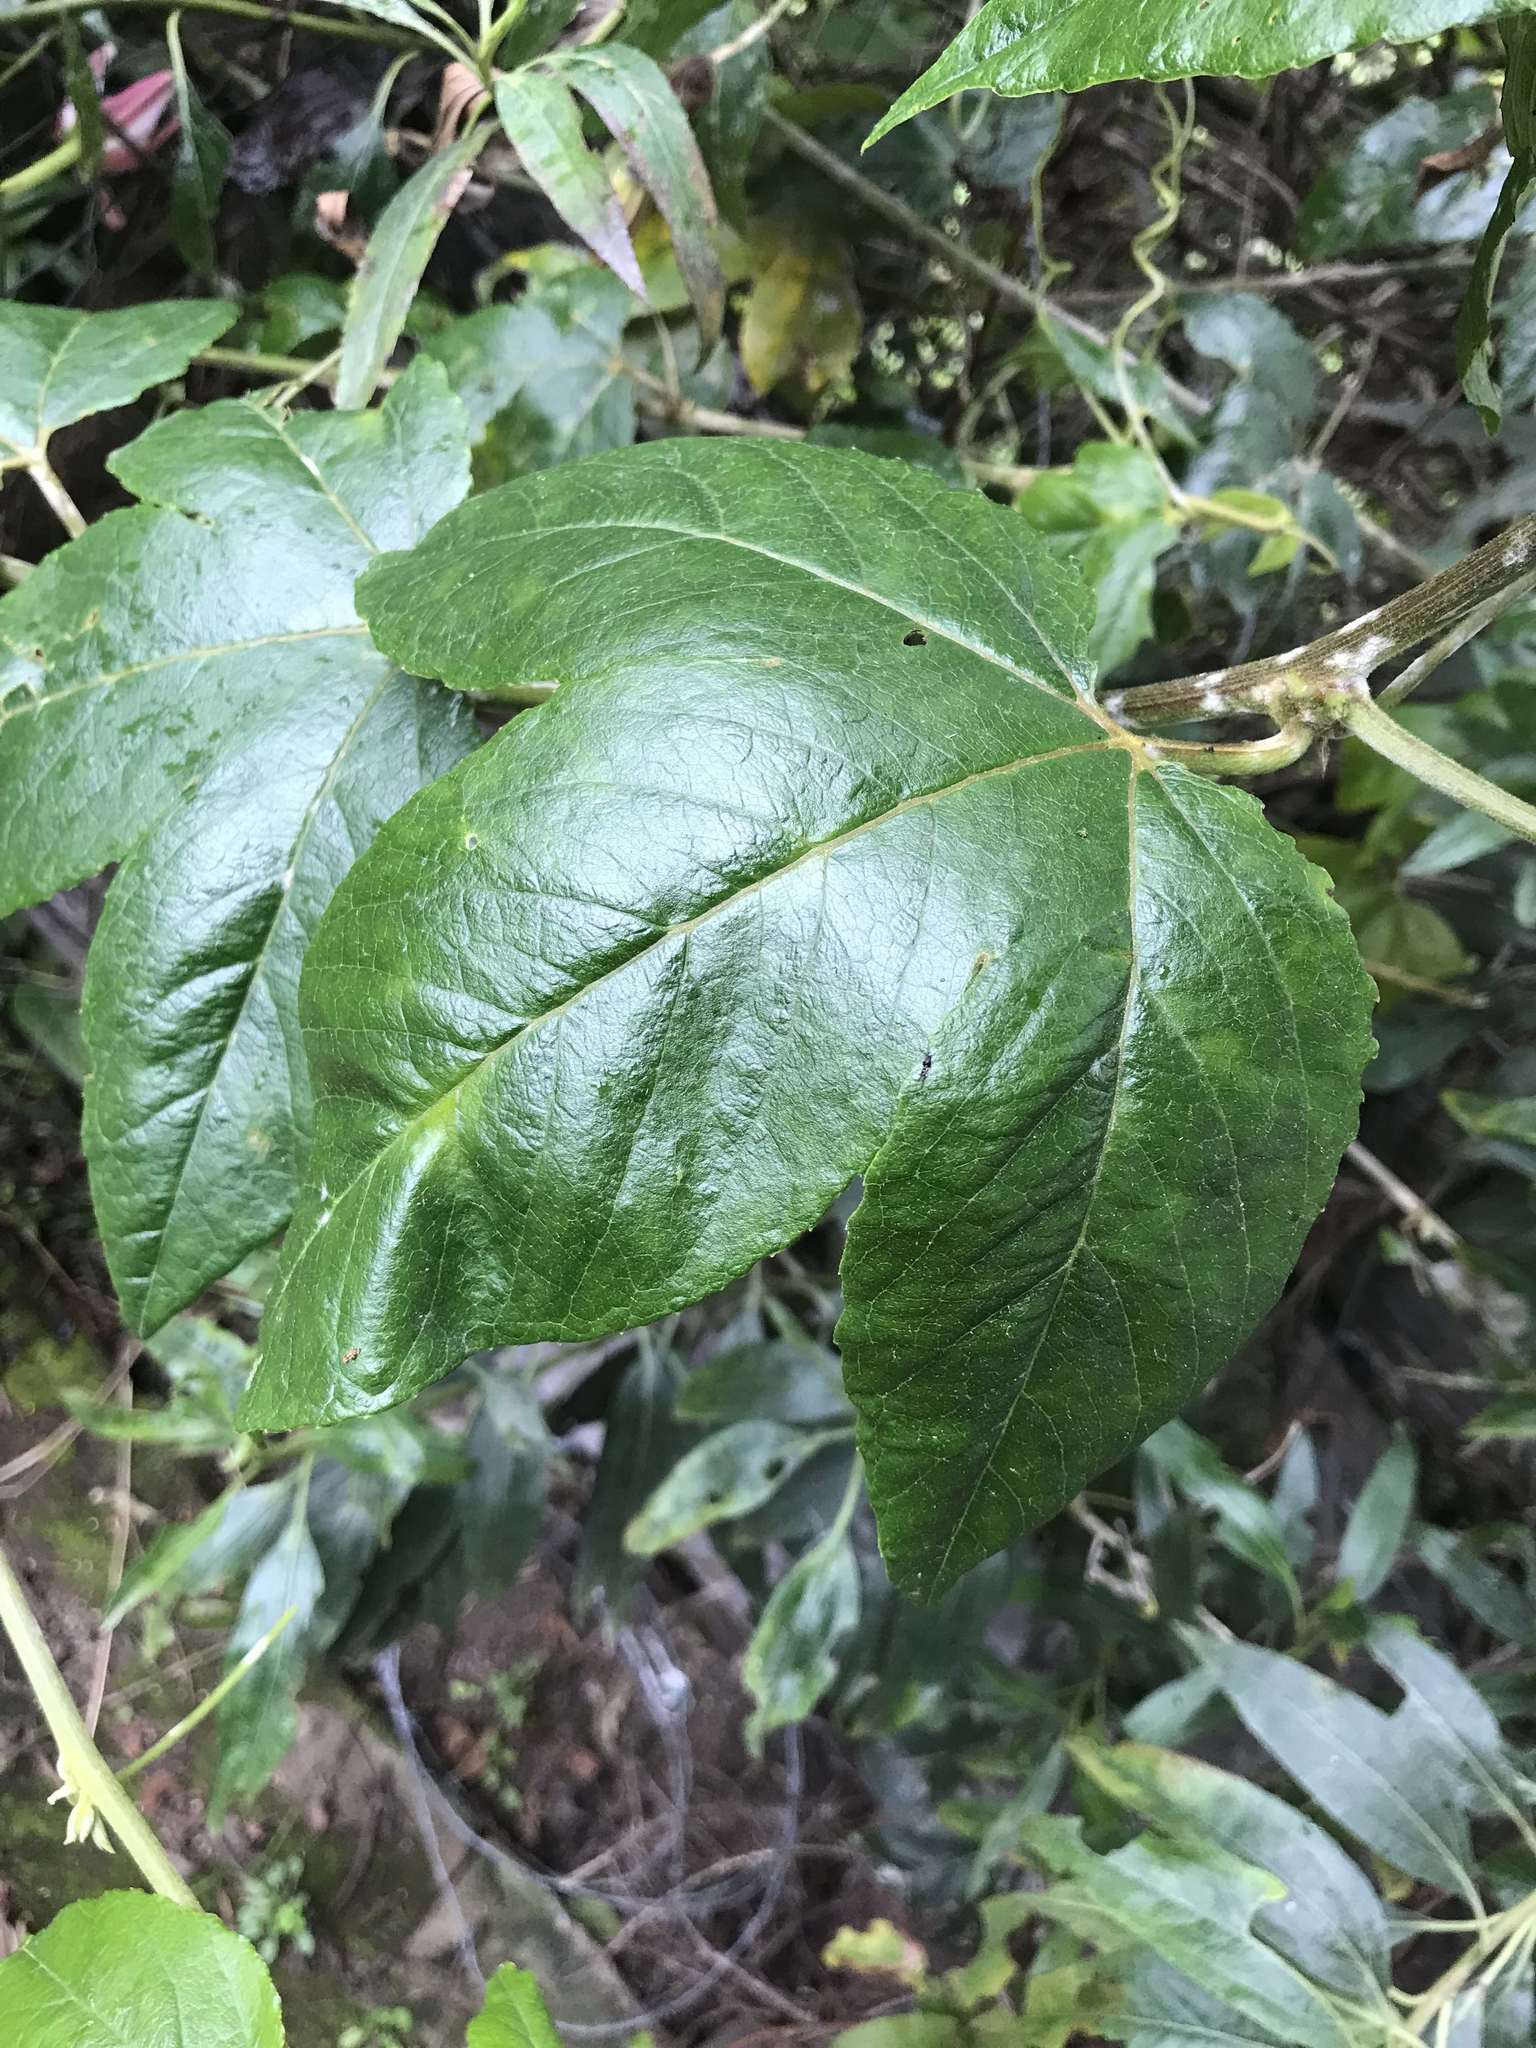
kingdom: Plantae
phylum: Tracheophyta
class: Magnoliopsida
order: Malpighiales
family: Passifloraceae
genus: Passiflora
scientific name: Passiflora tarminiana
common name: Banana poka
